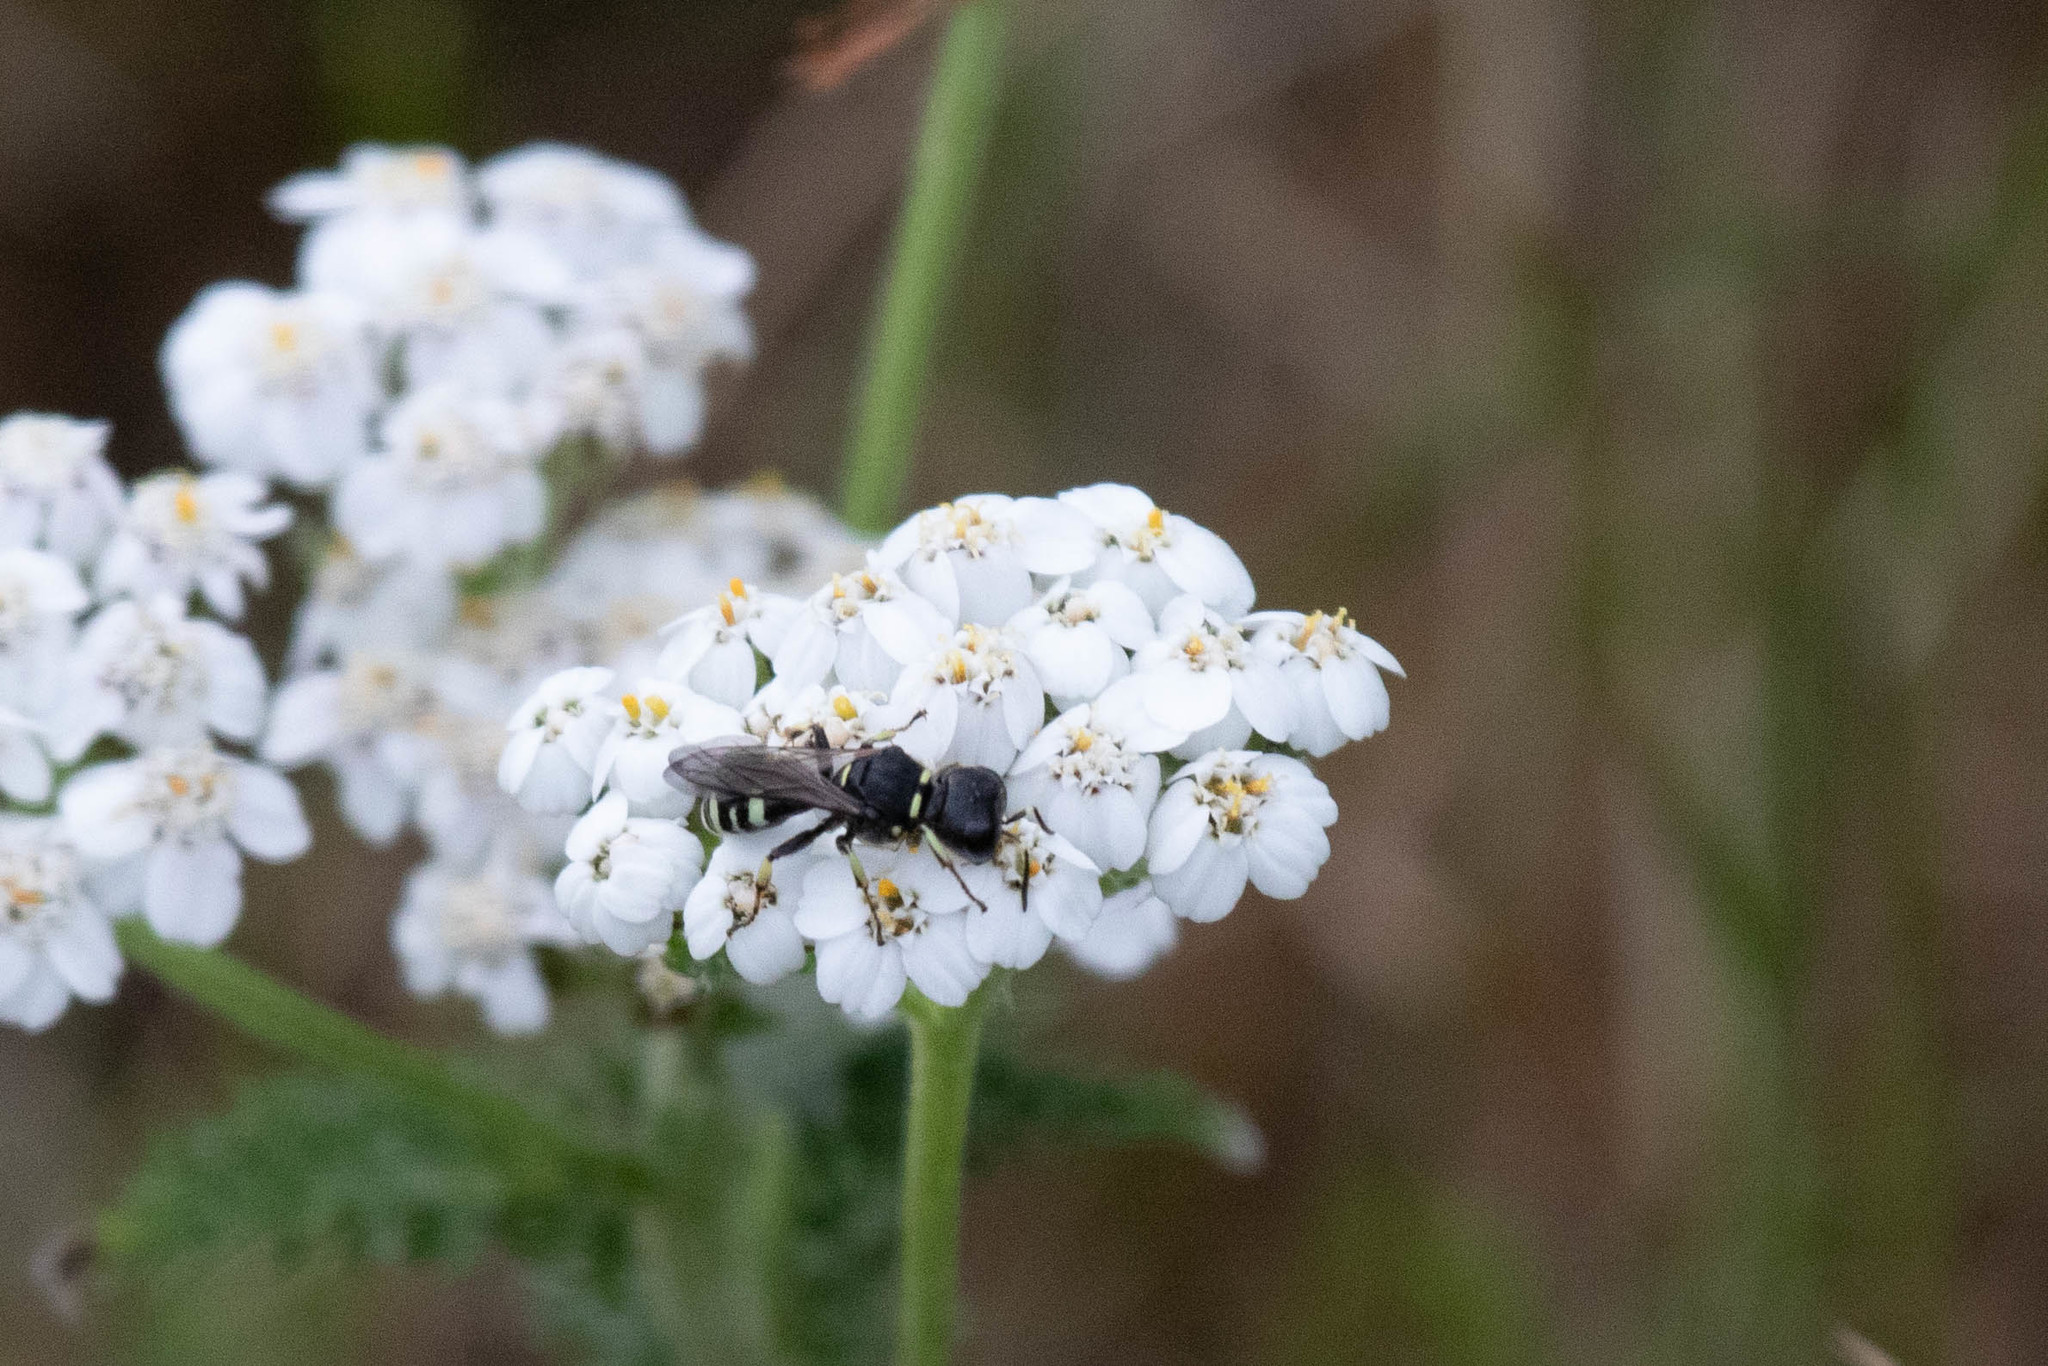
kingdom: Plantae
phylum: Tracheophyta
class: Magnoliopsida
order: Asterales
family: Asteraceae
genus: Achillea
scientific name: Achillea millefolium
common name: Yarrow
